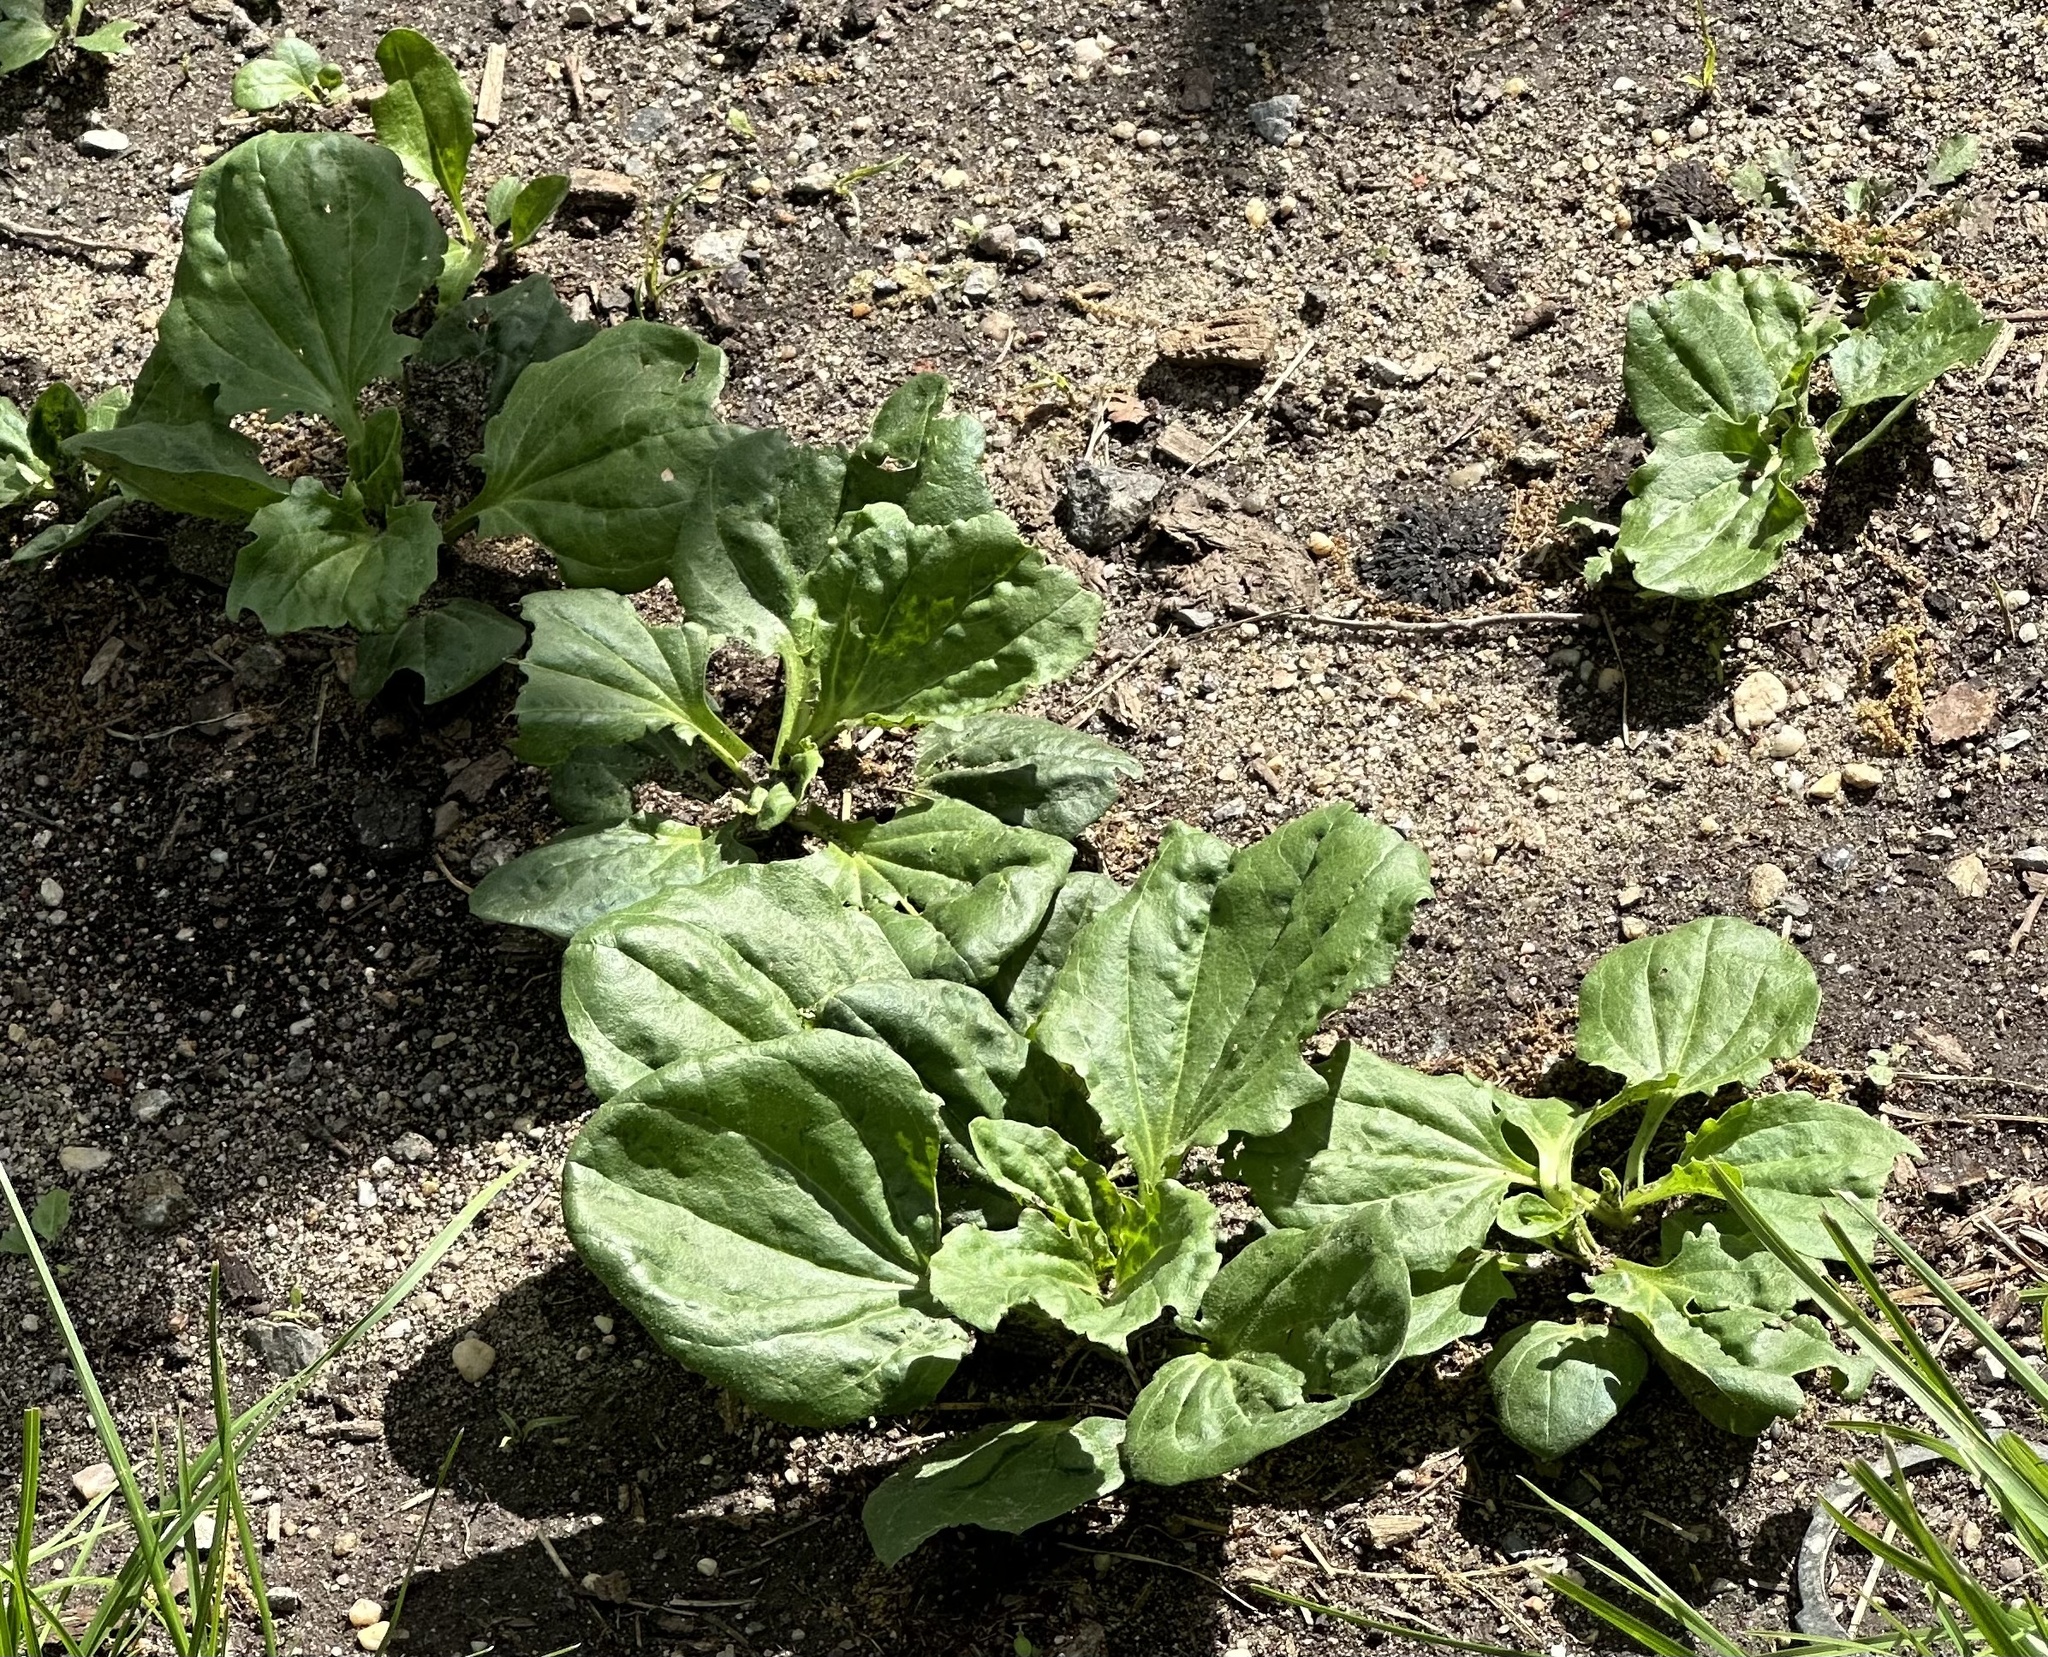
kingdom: Plantae
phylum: Tracheophyta
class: Magnoliopsida
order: Lamiales
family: Plantaginaceae
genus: Plantago
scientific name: Plantago major
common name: Common plantain
